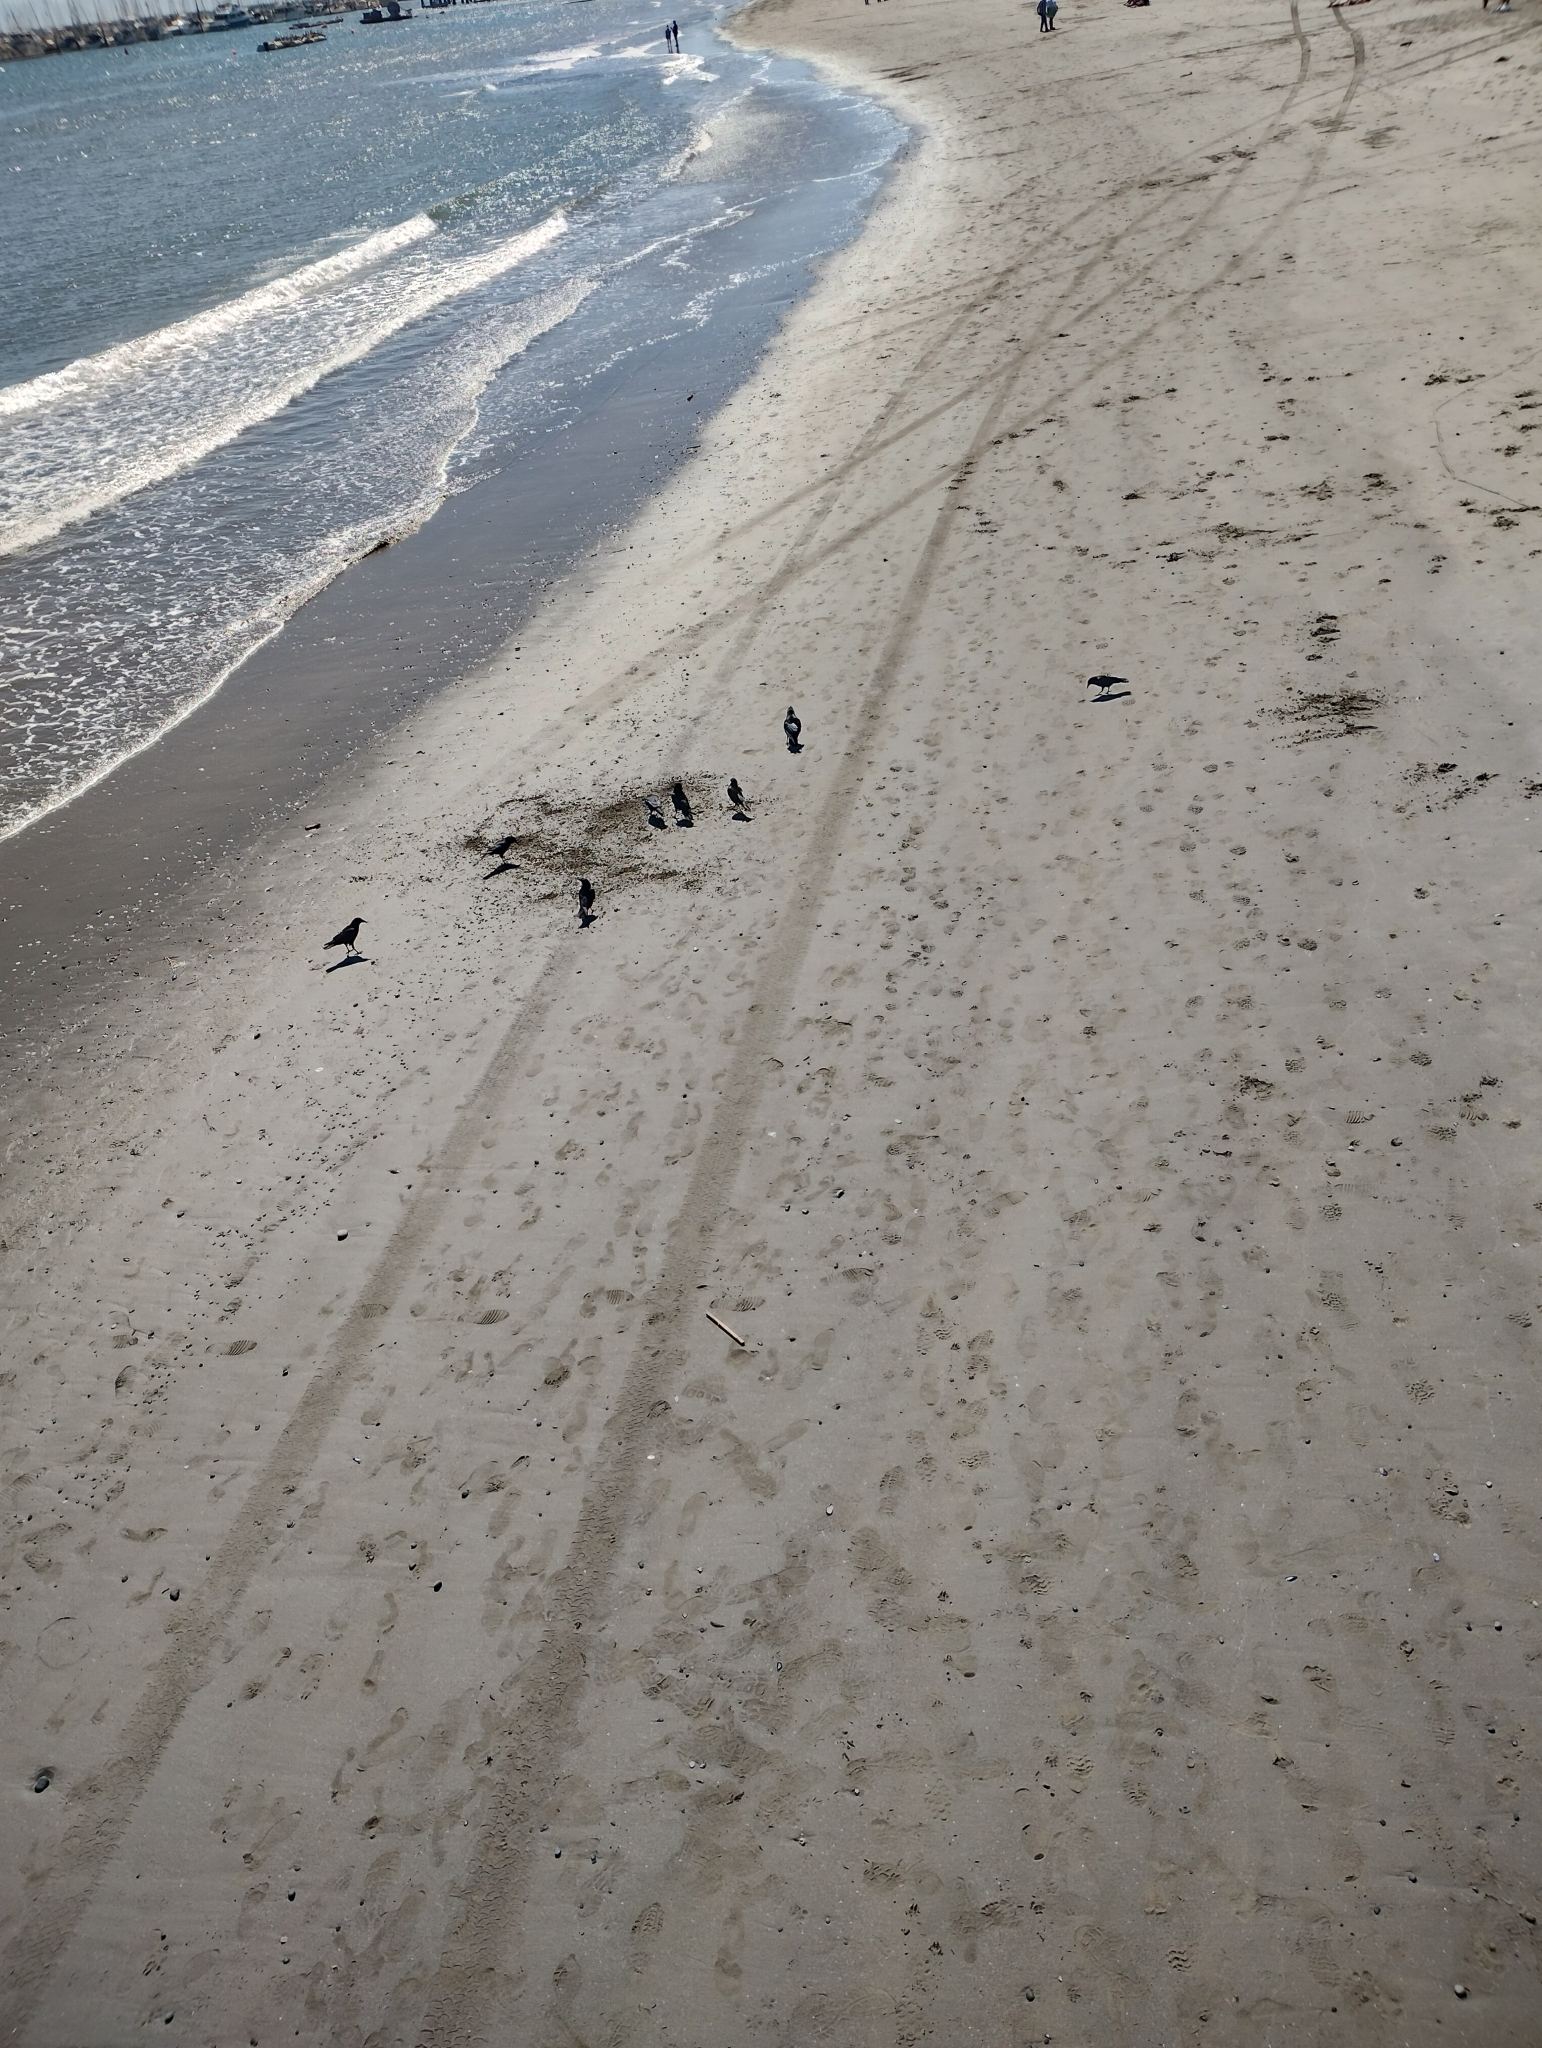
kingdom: Animalia
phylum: Chordata
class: Aves
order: Passeriformes
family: Corvidae
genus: Corvus
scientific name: Corvus brachyrhynchos
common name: American crow
